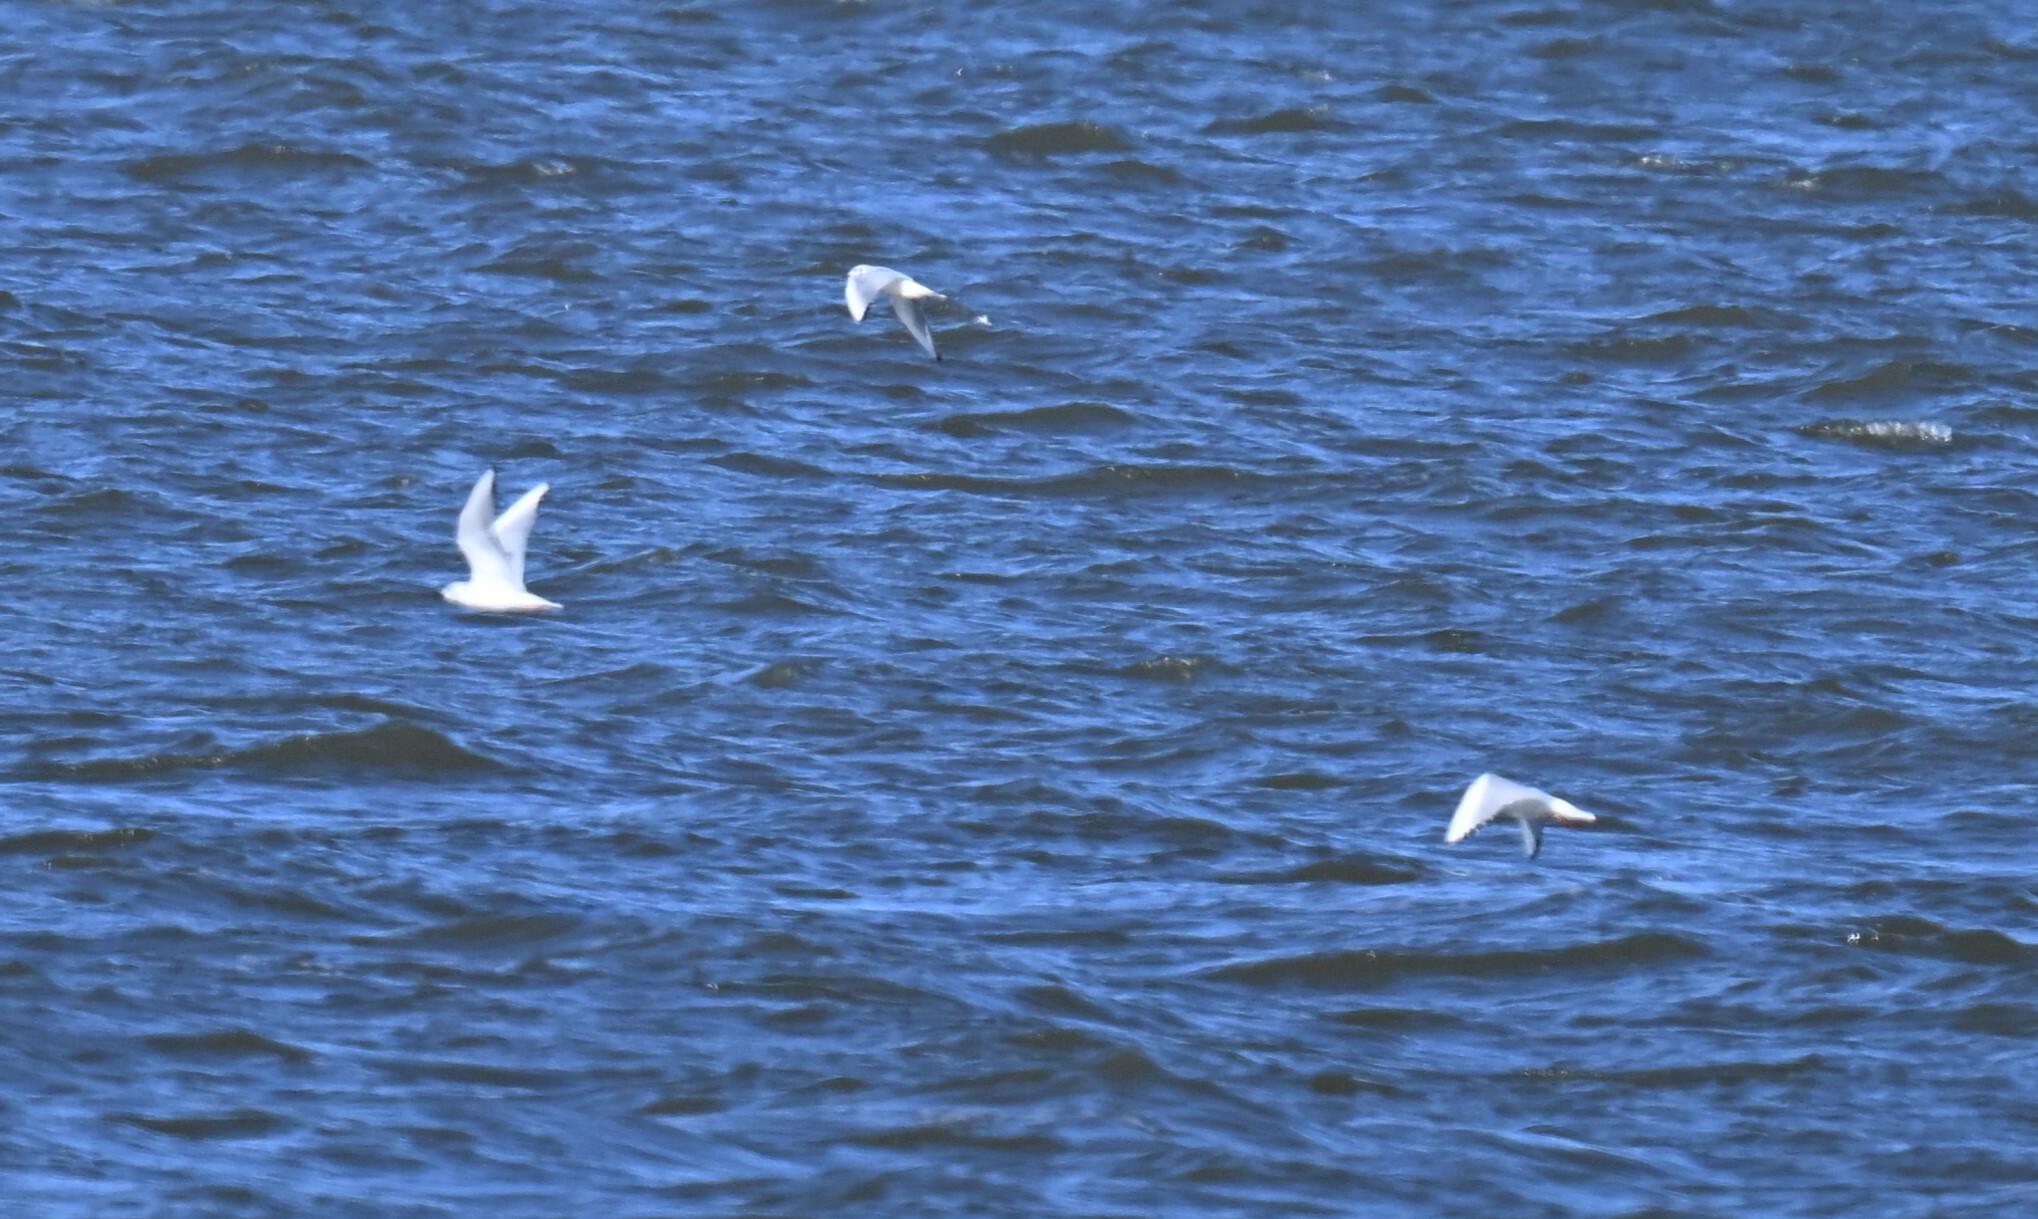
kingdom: Animalia
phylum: Chordata
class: Aves
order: Charadriiformes
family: Laridae
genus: Chroicocephalus
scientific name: Chroicocephalus philadelphia
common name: Bonaparte's gull
